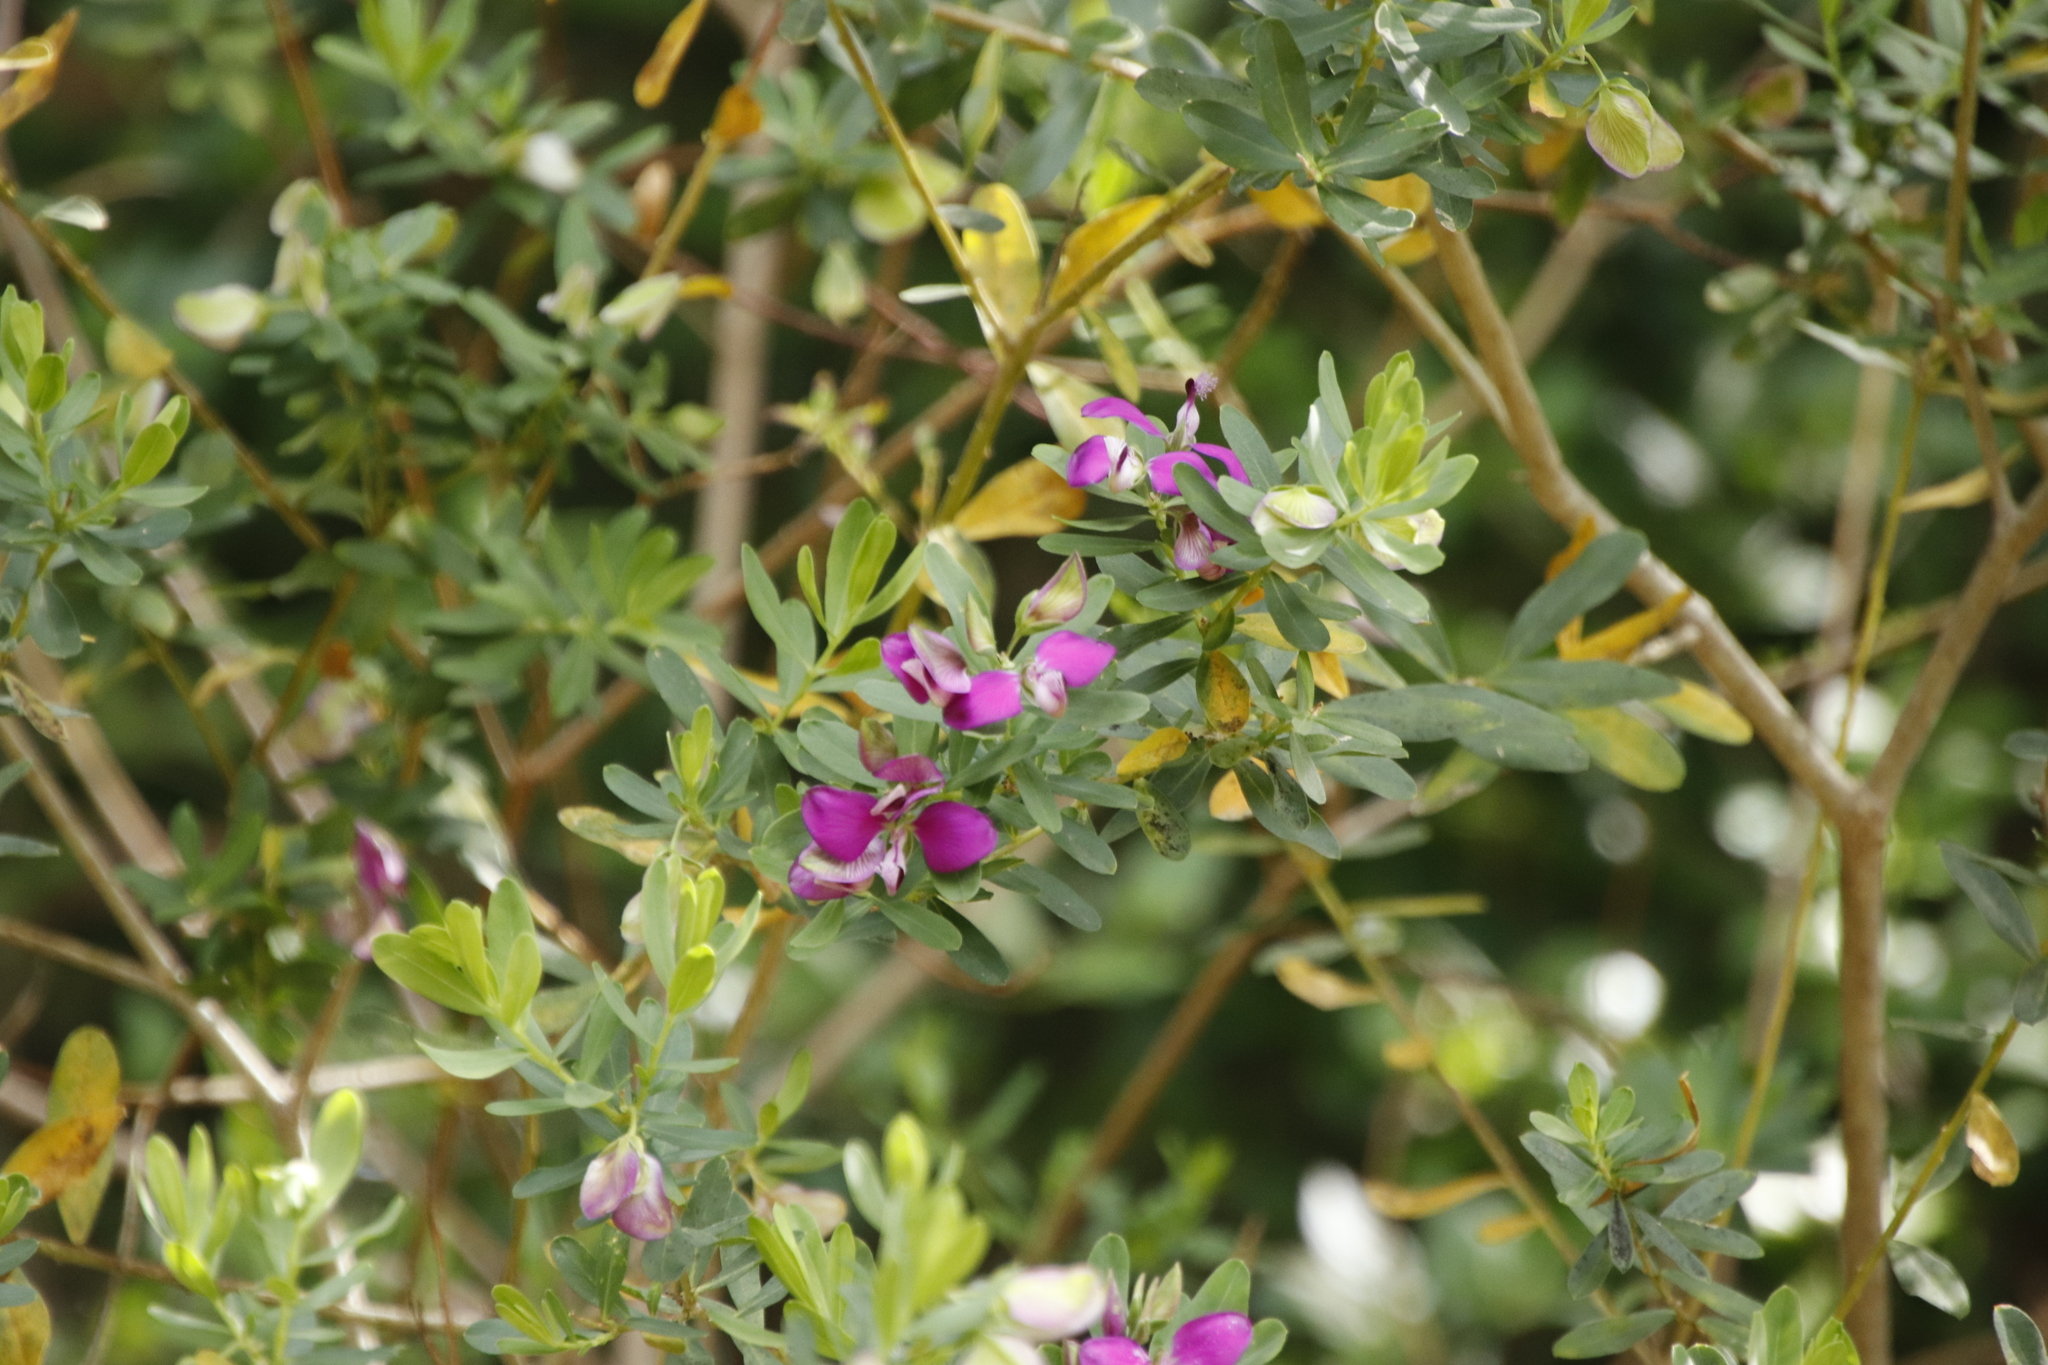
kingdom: Plantae
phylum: Tracheophyta
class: Magnoliopsida
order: Fabales
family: Polygalaceae
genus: Polygala
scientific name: Polygala myrtifolia
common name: Myrtle-leaf milkwort
